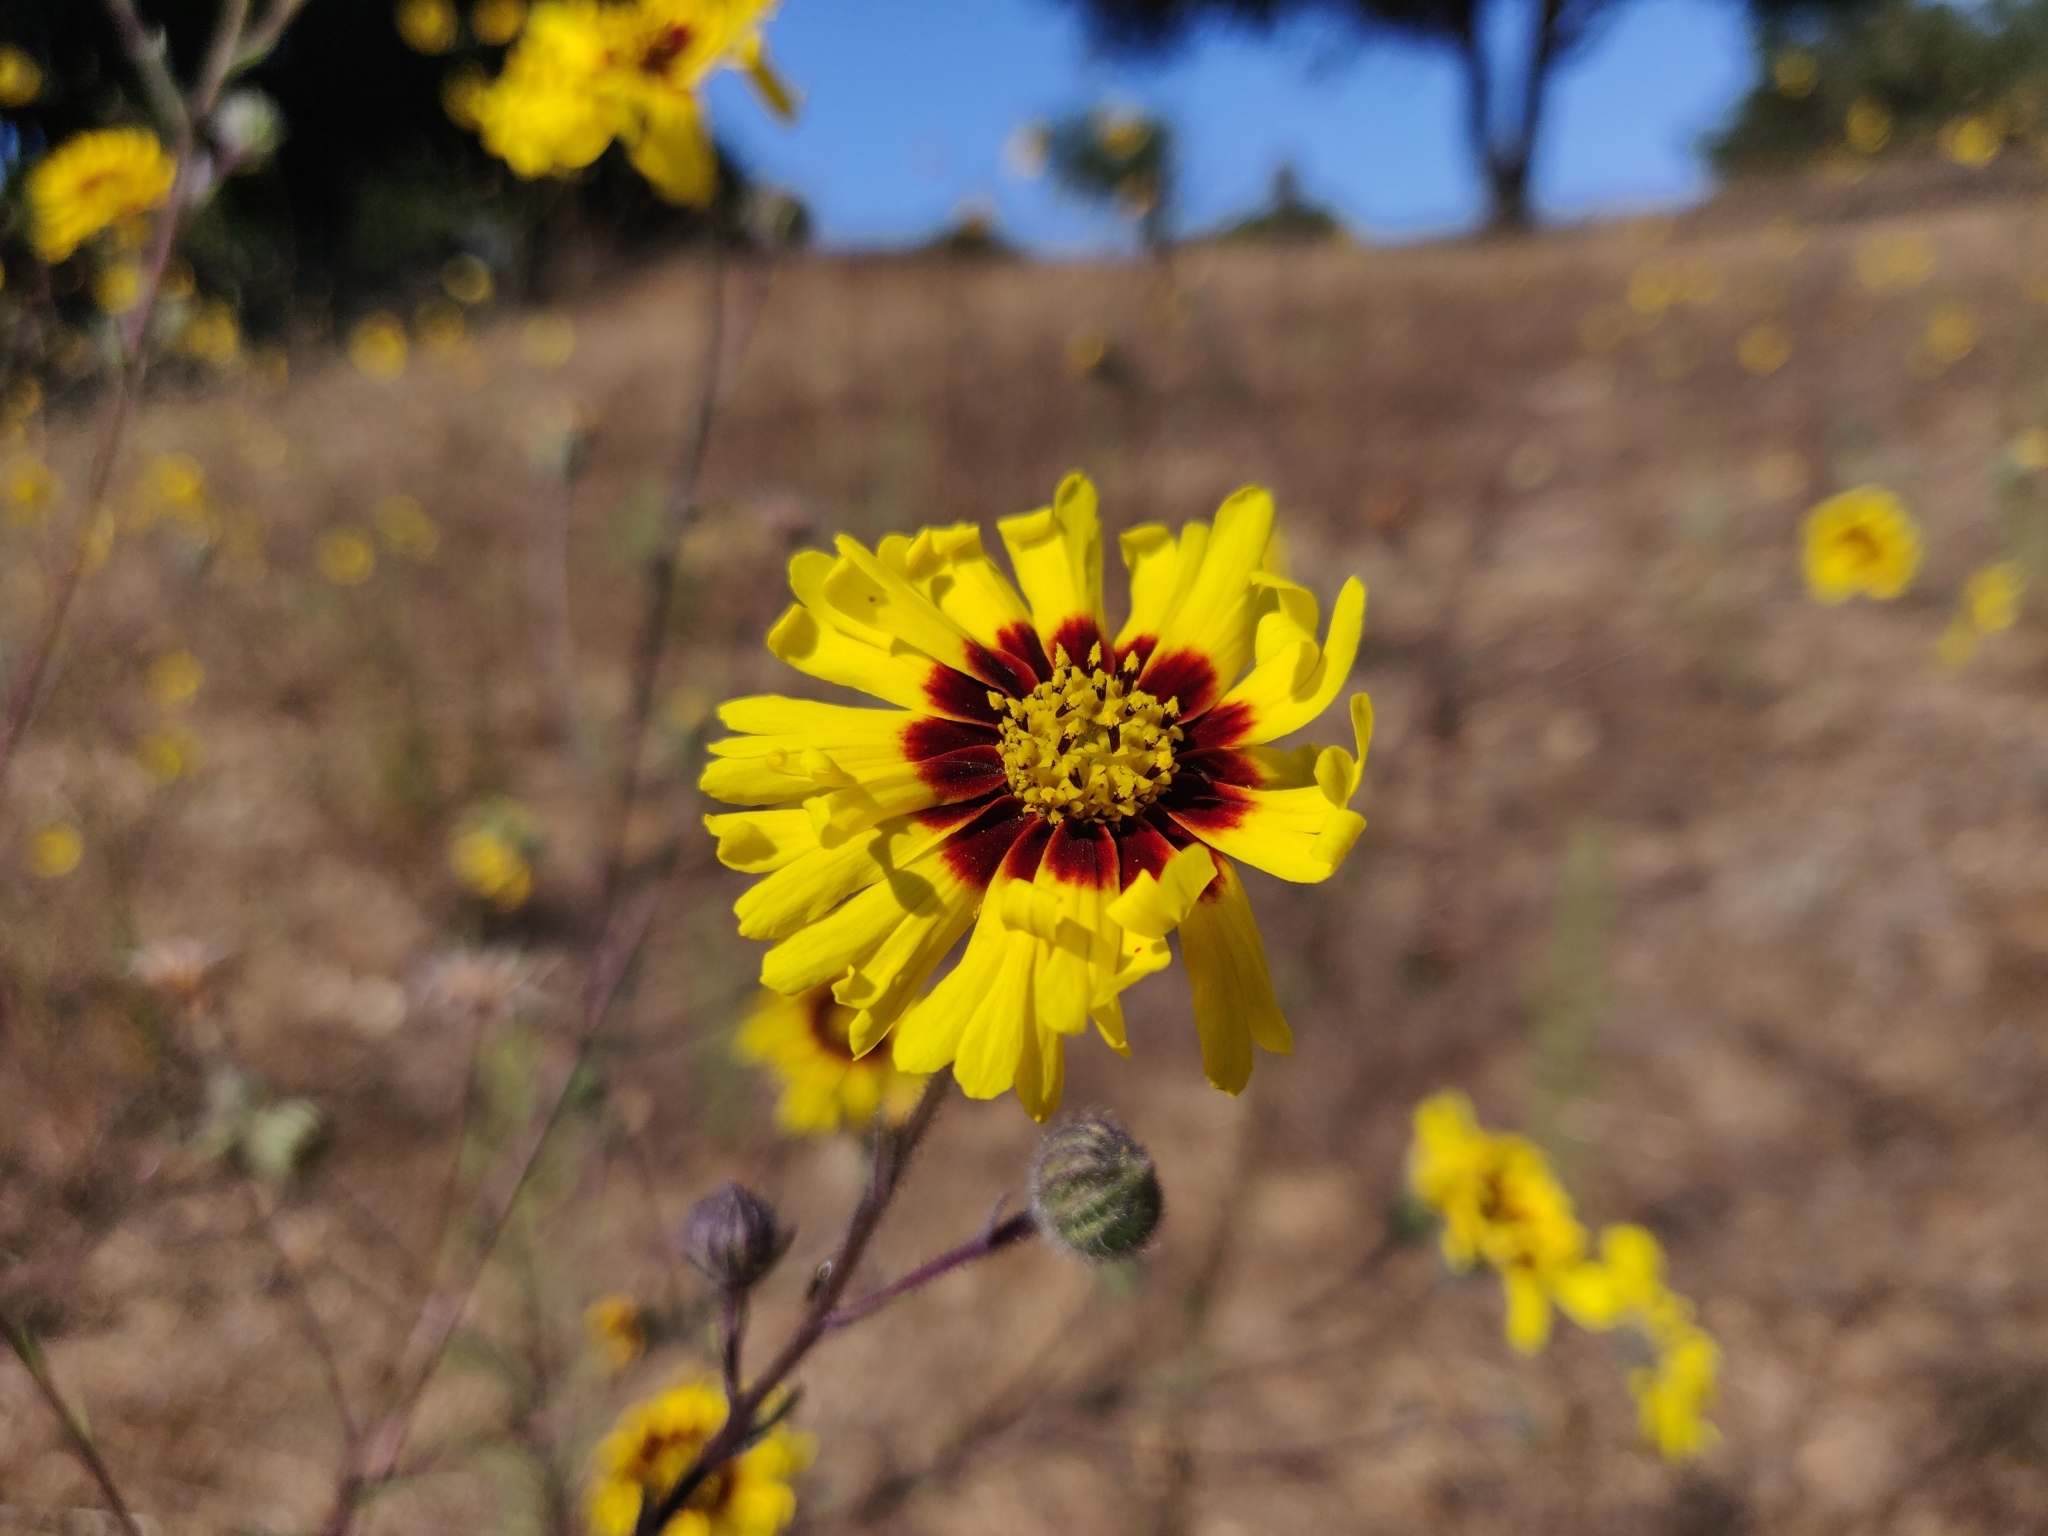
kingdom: Plantae
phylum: Tracheophyta
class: Magnoliopsida
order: Asterales
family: Asteraceae
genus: Madia
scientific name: Madia elegans
